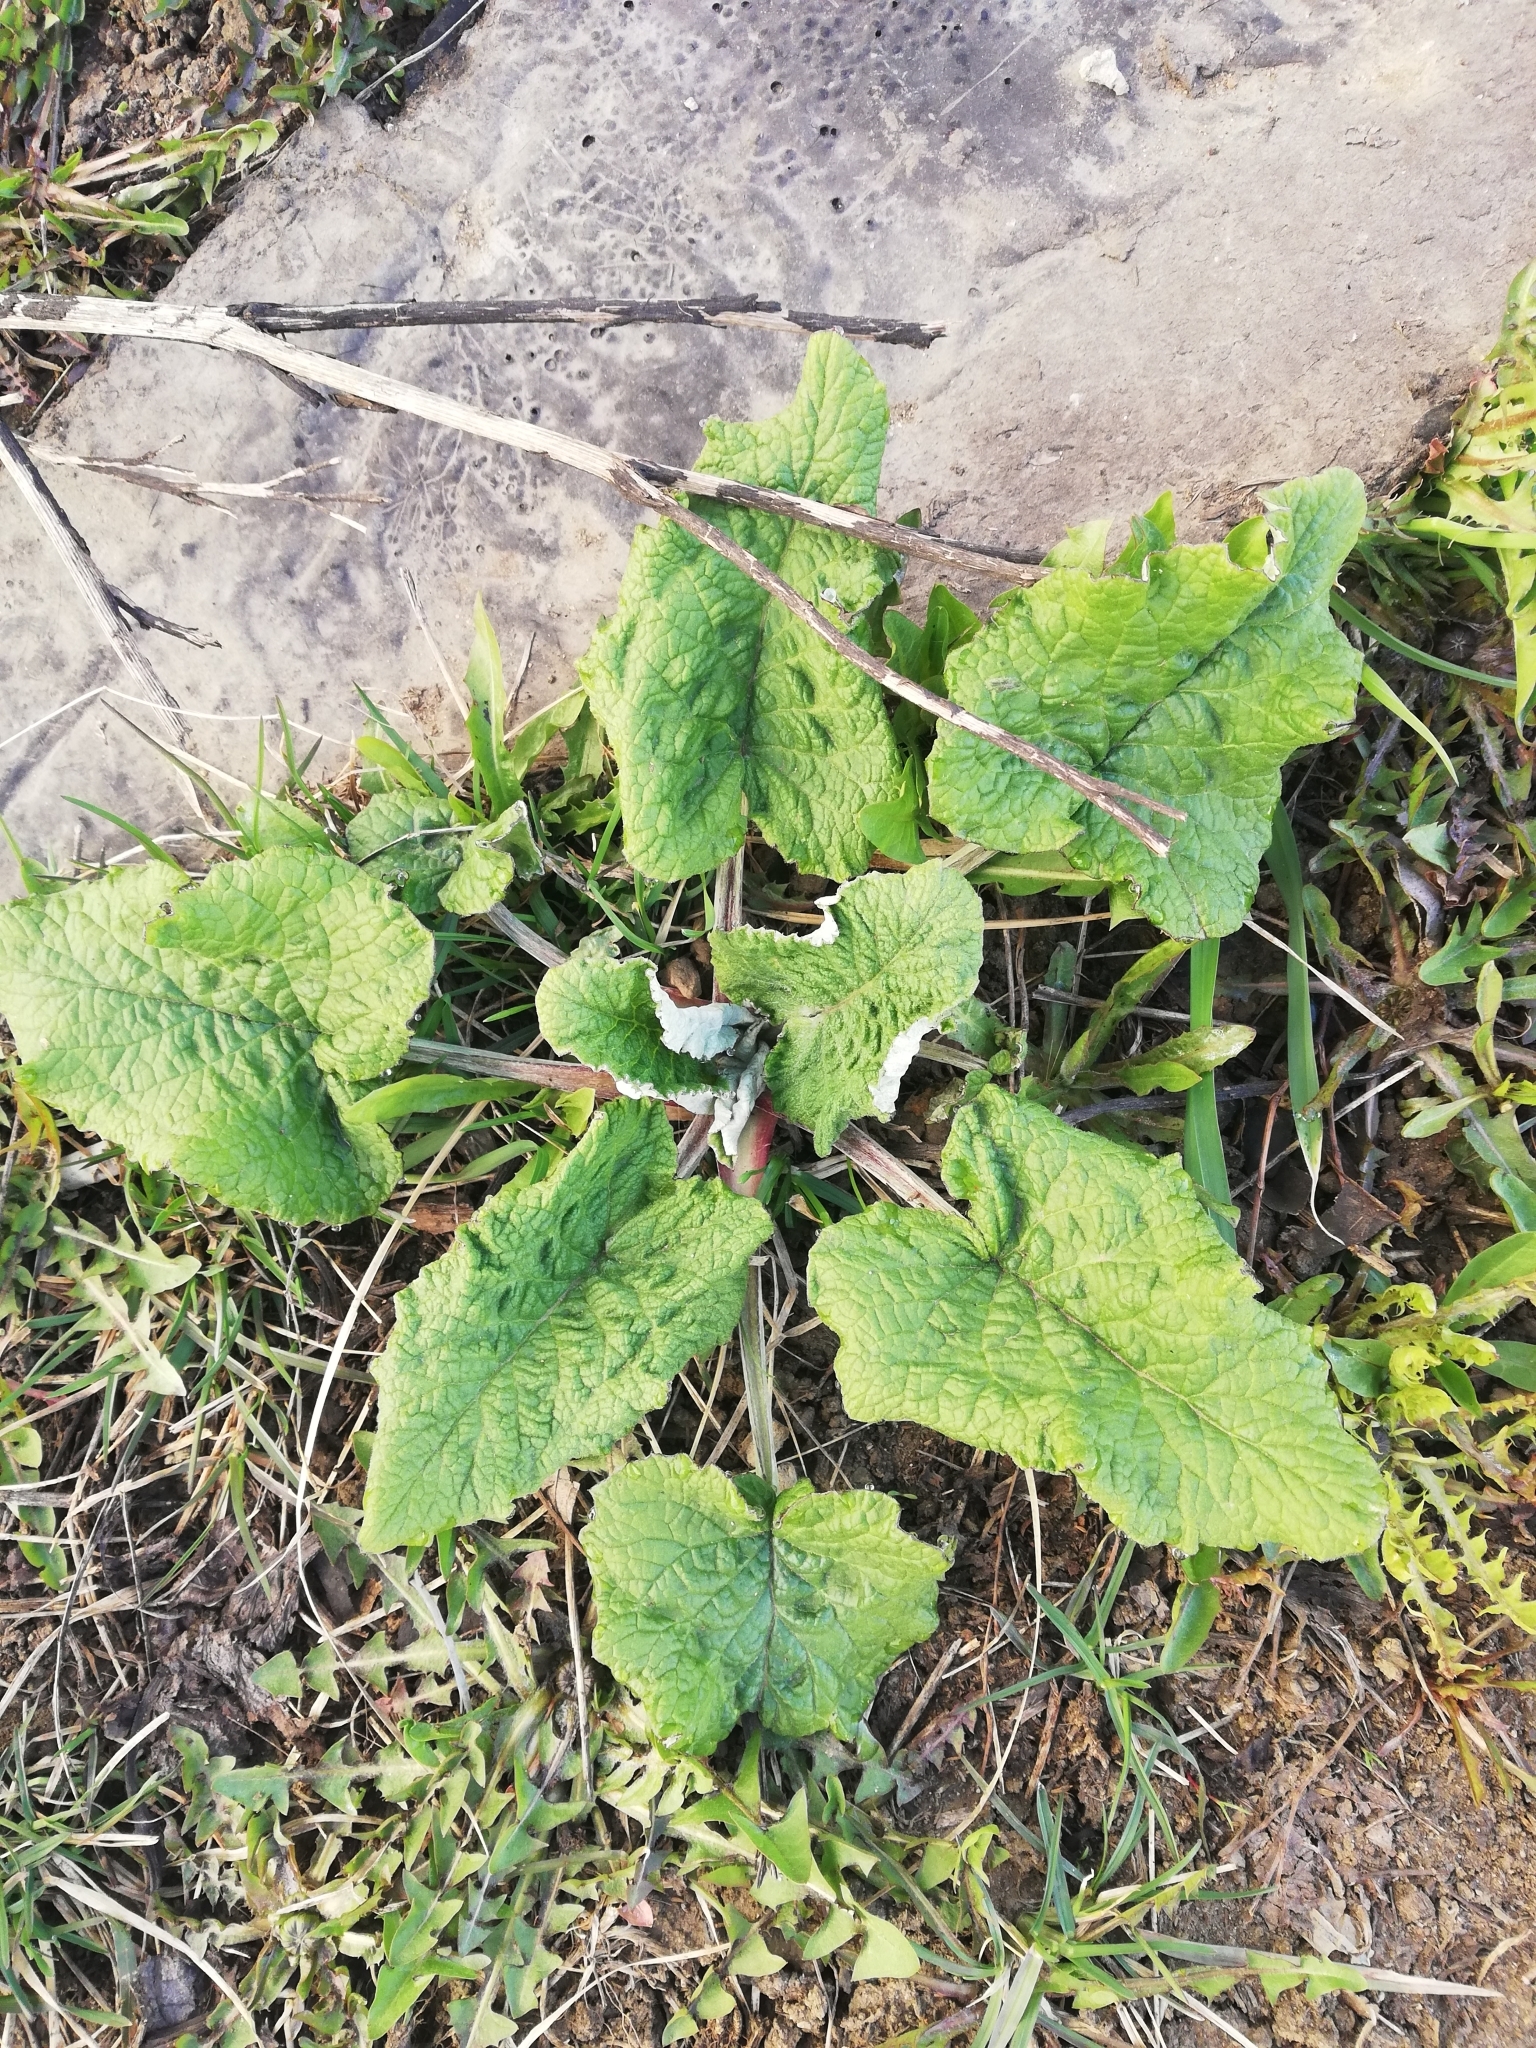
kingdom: Plantae
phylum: Tracheophyta
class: Magnoliopsida
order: Asterales
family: Asteraceae
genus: Arctium
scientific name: Arctium tomentosum
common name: Woolly burdock
